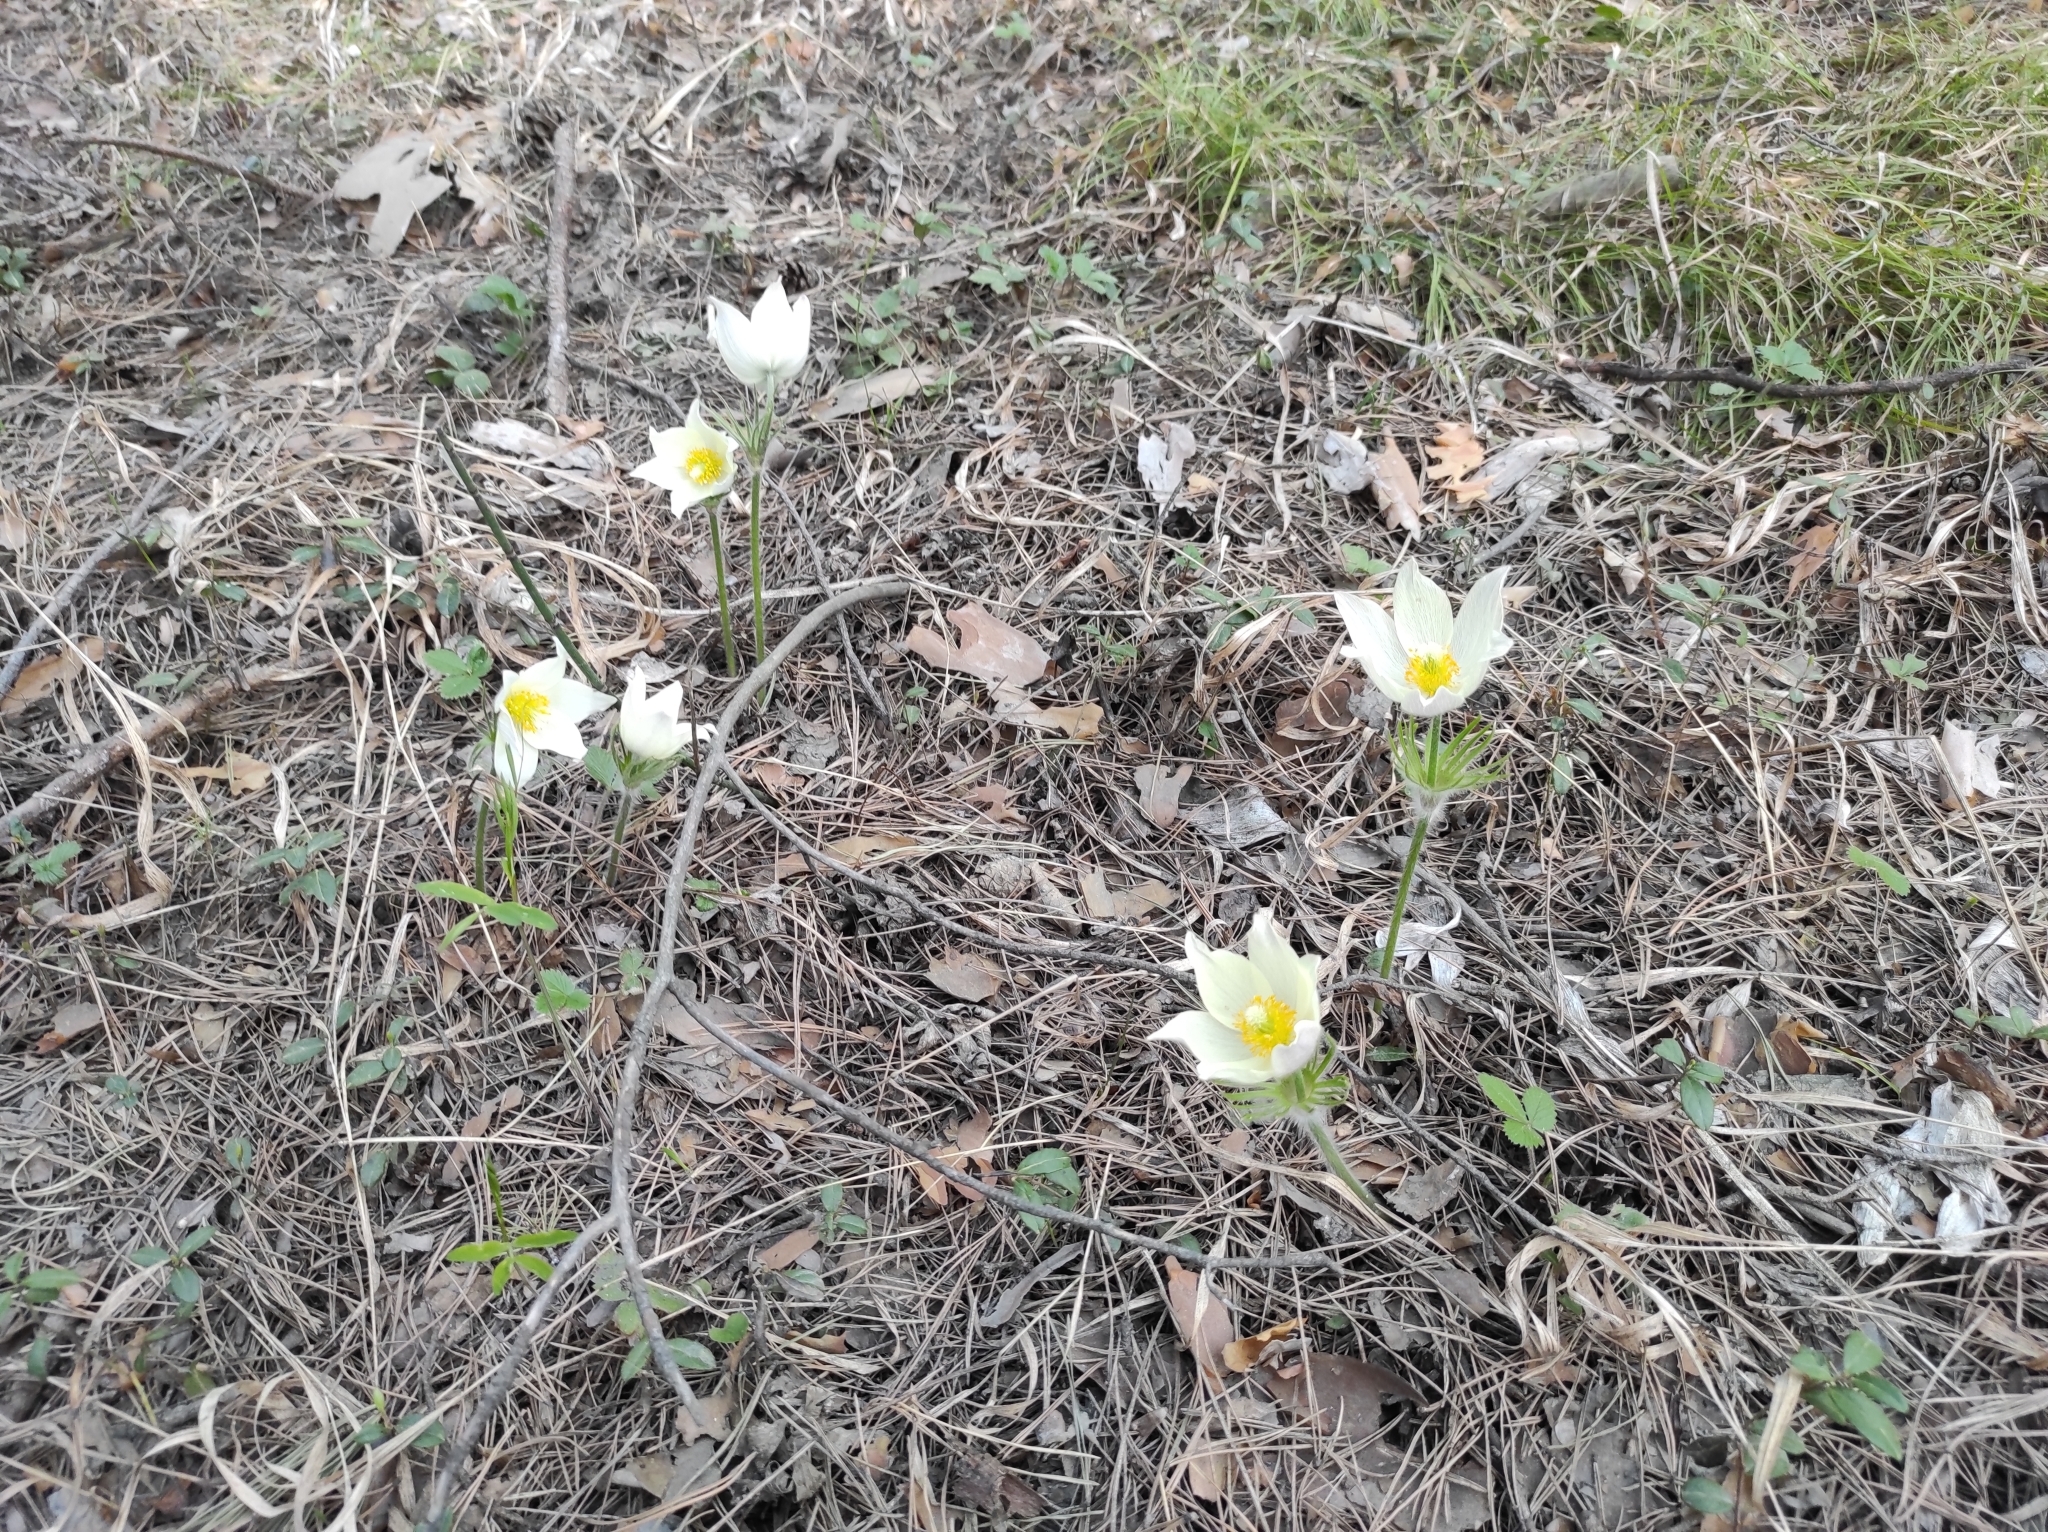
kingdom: Plantae
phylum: Tracheophyta
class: Magnoliopsida
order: Ranunculales
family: Ranunculaceae
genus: Pulsatilla
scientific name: Pulsatilla patens
